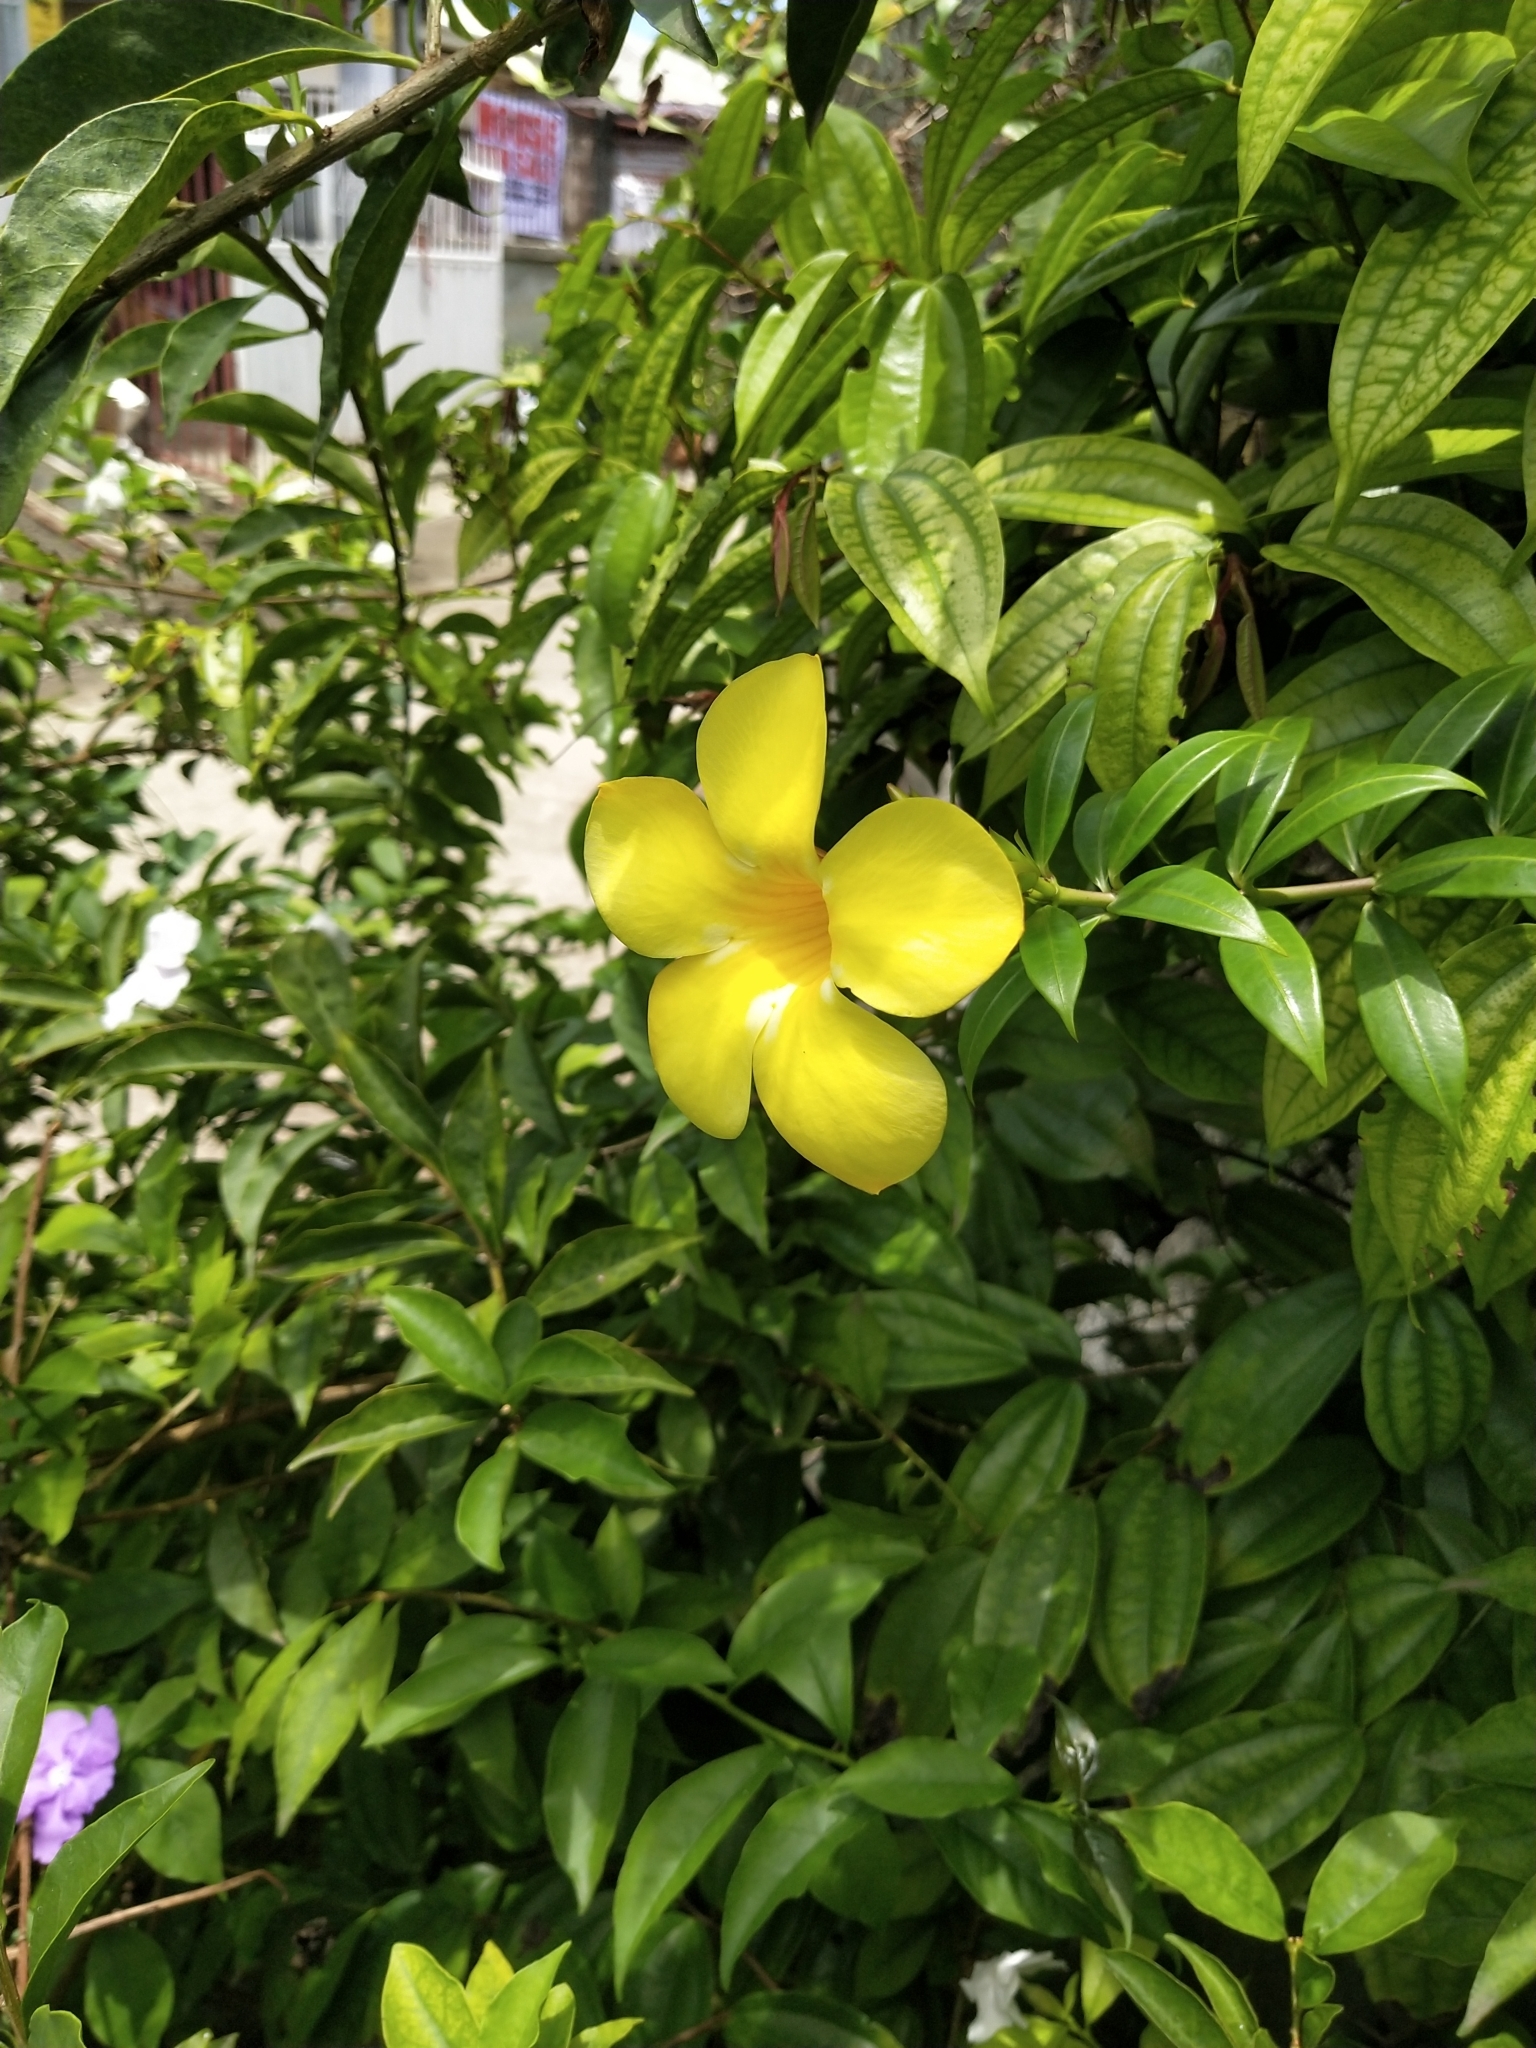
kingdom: Plantae
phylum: Tracheophyta
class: Magnoliopsida
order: Gentianales
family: Apocynaceae
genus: Allamanda
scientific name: Allamanda cathartica
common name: Golden trumpet
